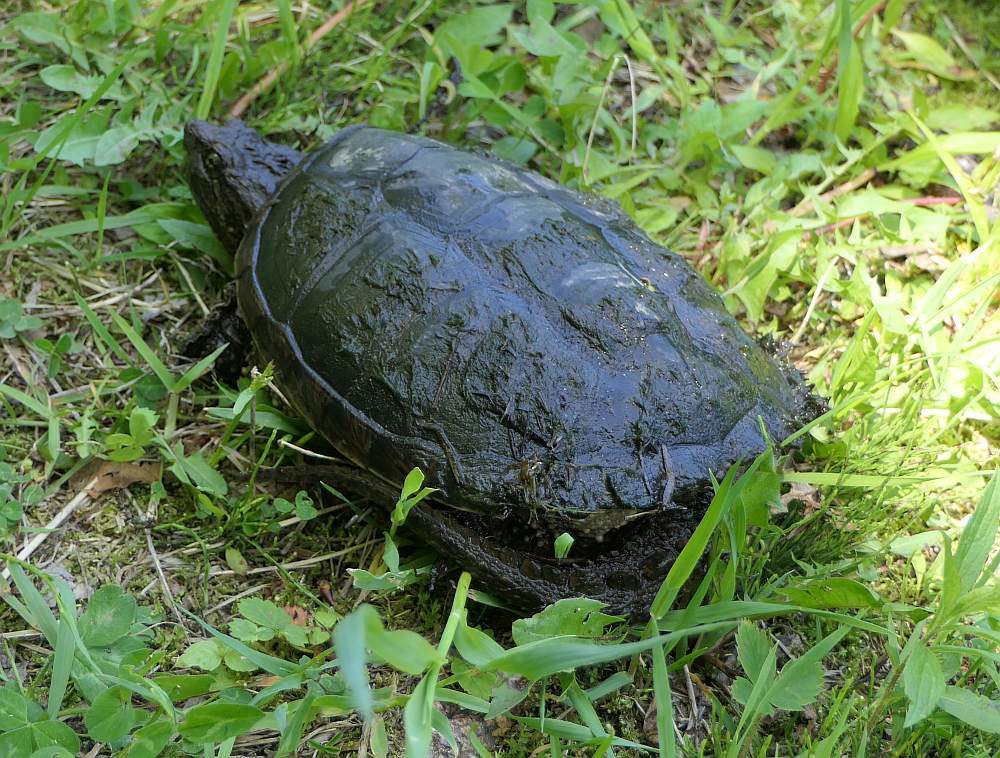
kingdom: Animalia
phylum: Chordata
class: Testudines
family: Chelydridae
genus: Chelydra
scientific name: Chelydra serpentina
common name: Common snapping turtle
